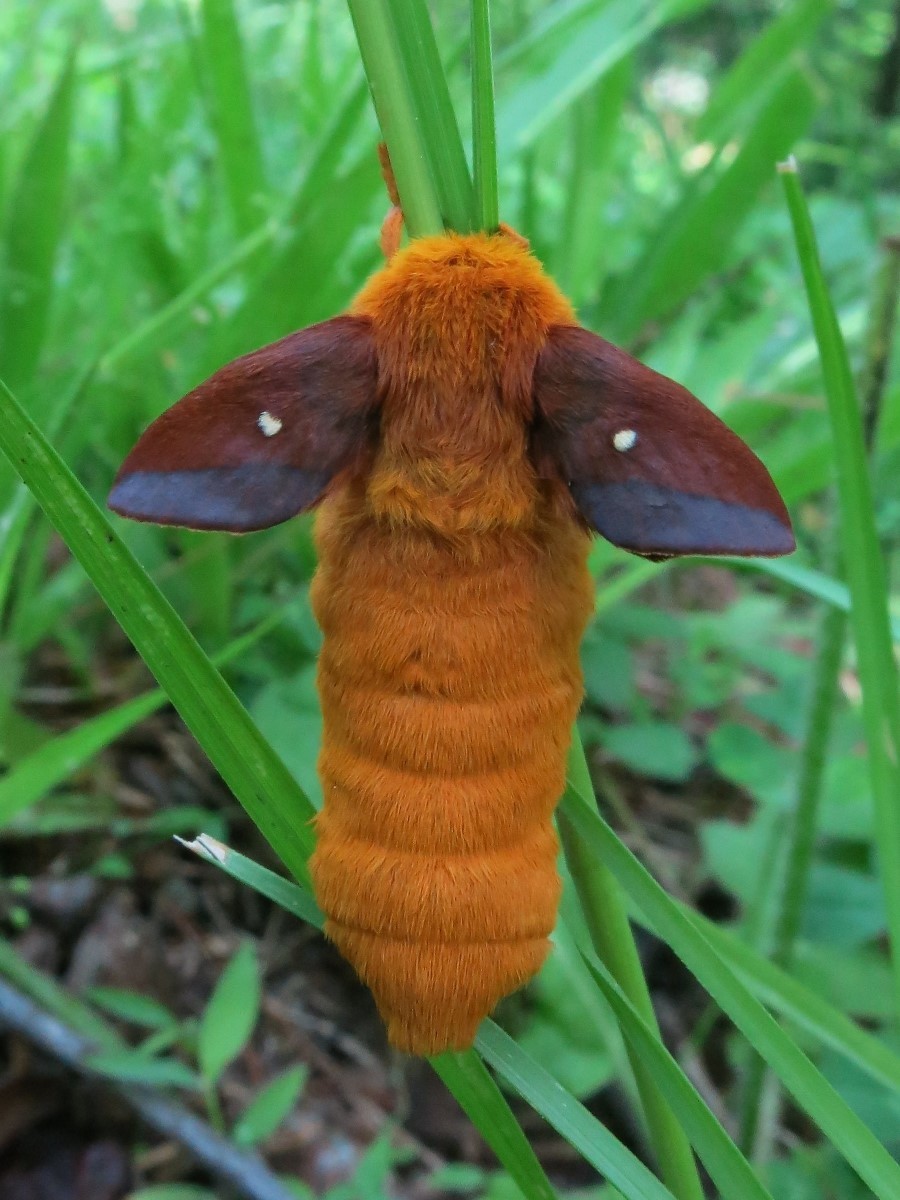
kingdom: Animalia
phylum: Arthropoda
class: Insecta
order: Lepidoptera
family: Saturniidae
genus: Anisota
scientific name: Anisota senatoria
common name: Orange-striped oakworm moth
